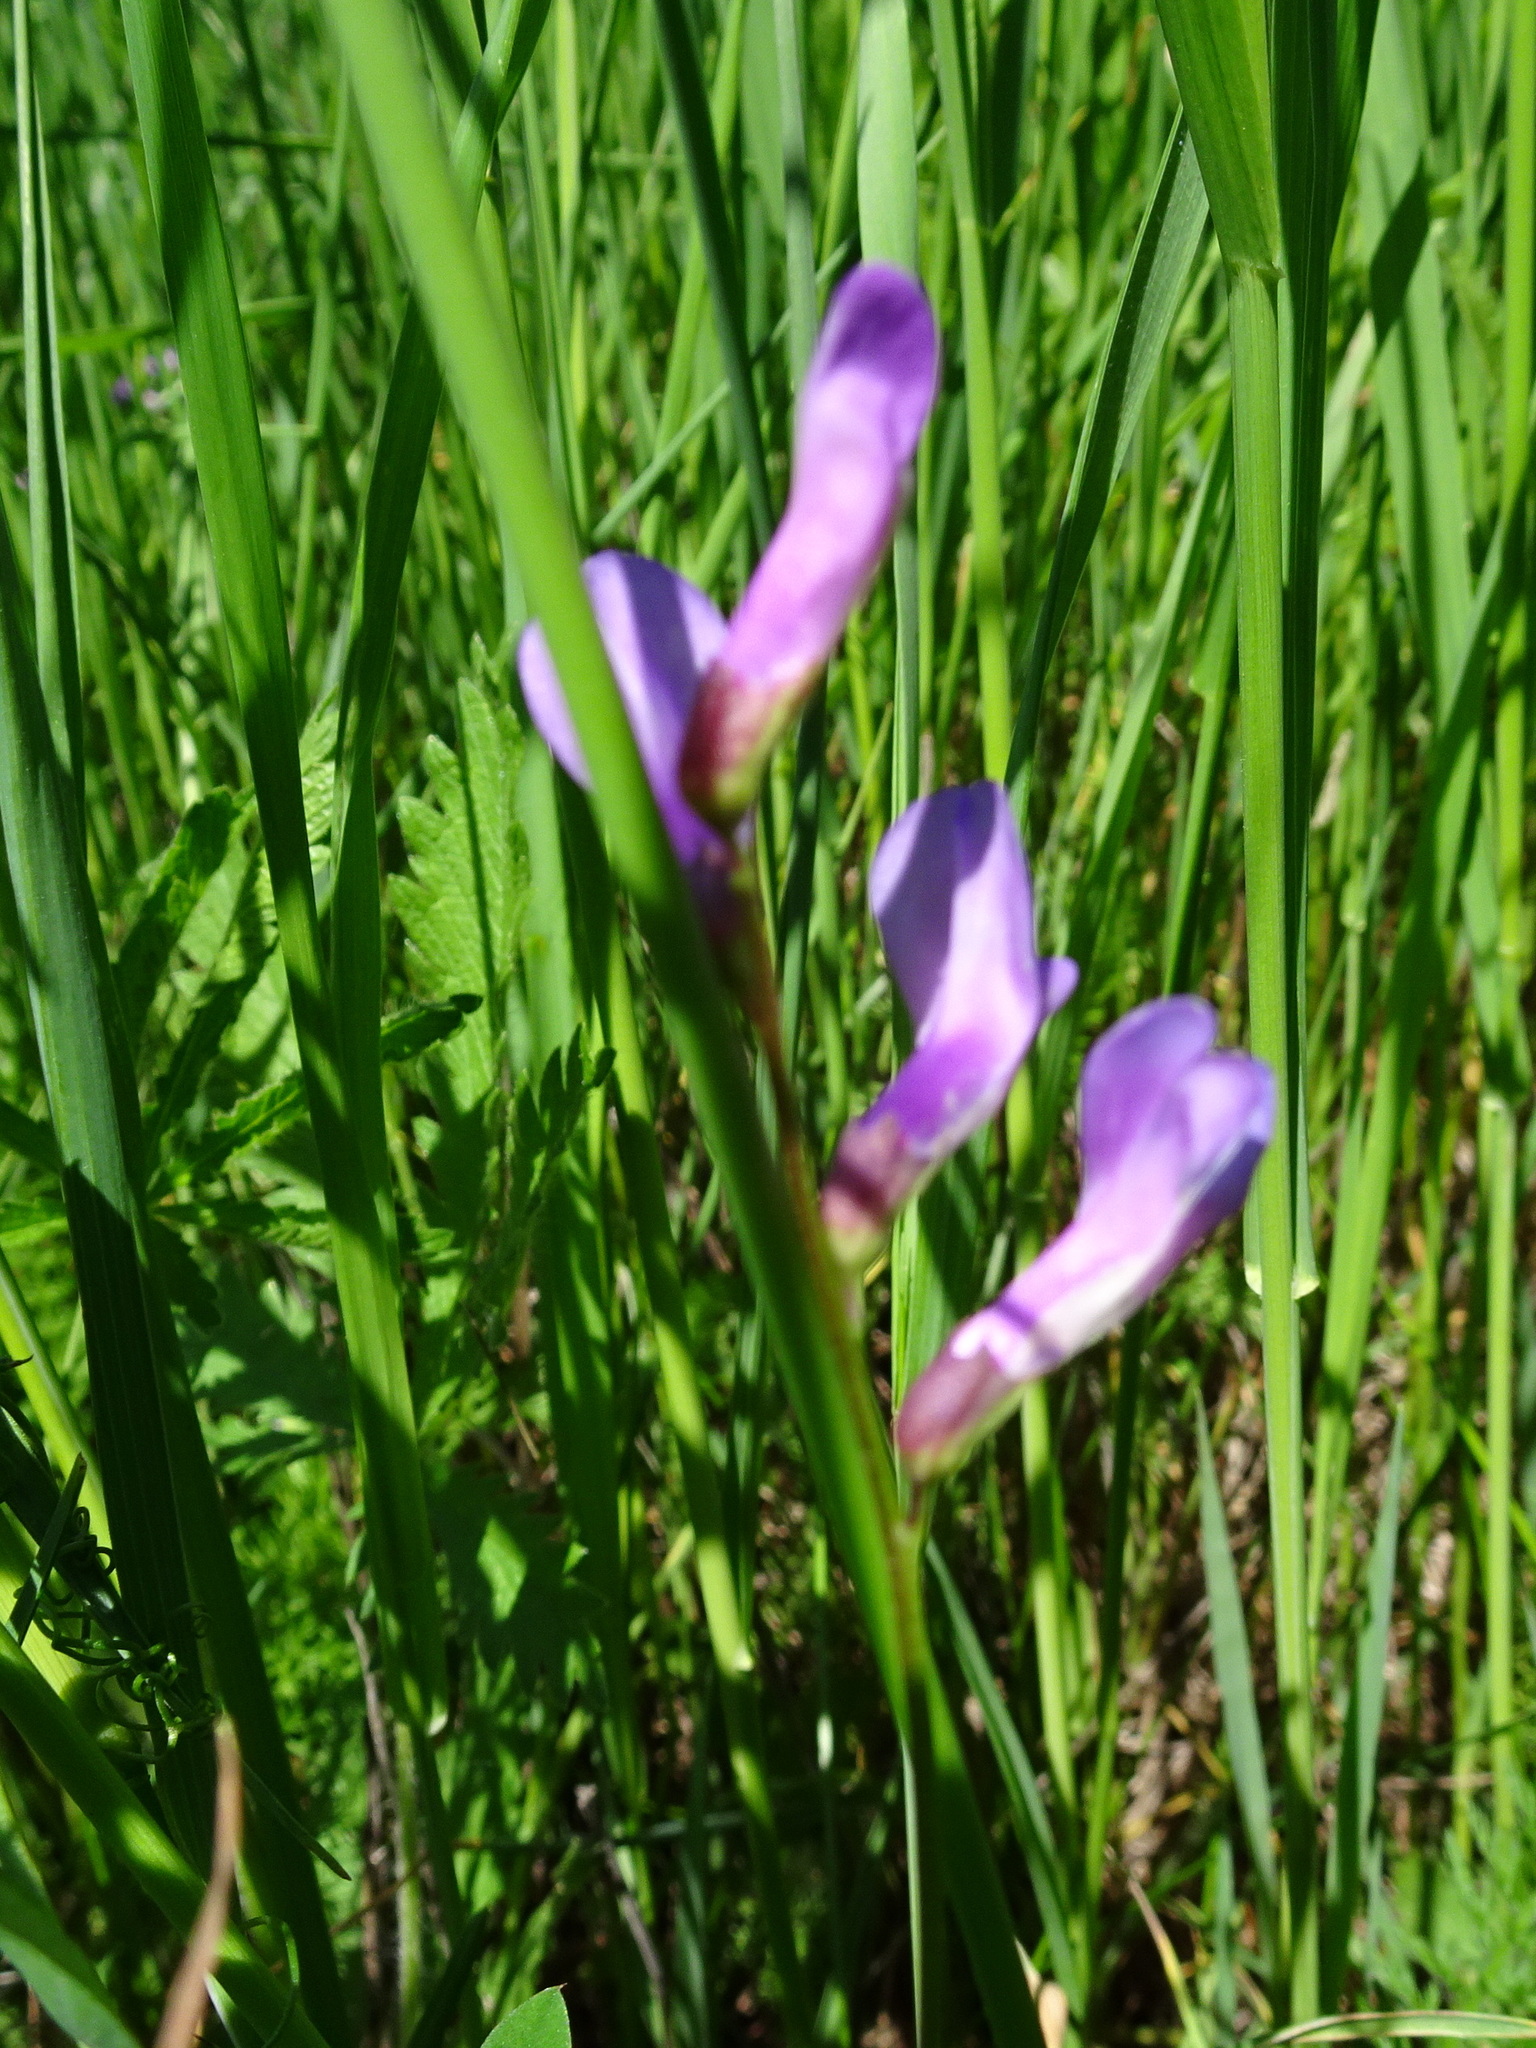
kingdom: Plantae
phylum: Tracheophyta
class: Magnoliopsida
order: Fabales
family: Fabaceae
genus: Vicia
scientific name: Vicia americana
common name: American vetch
